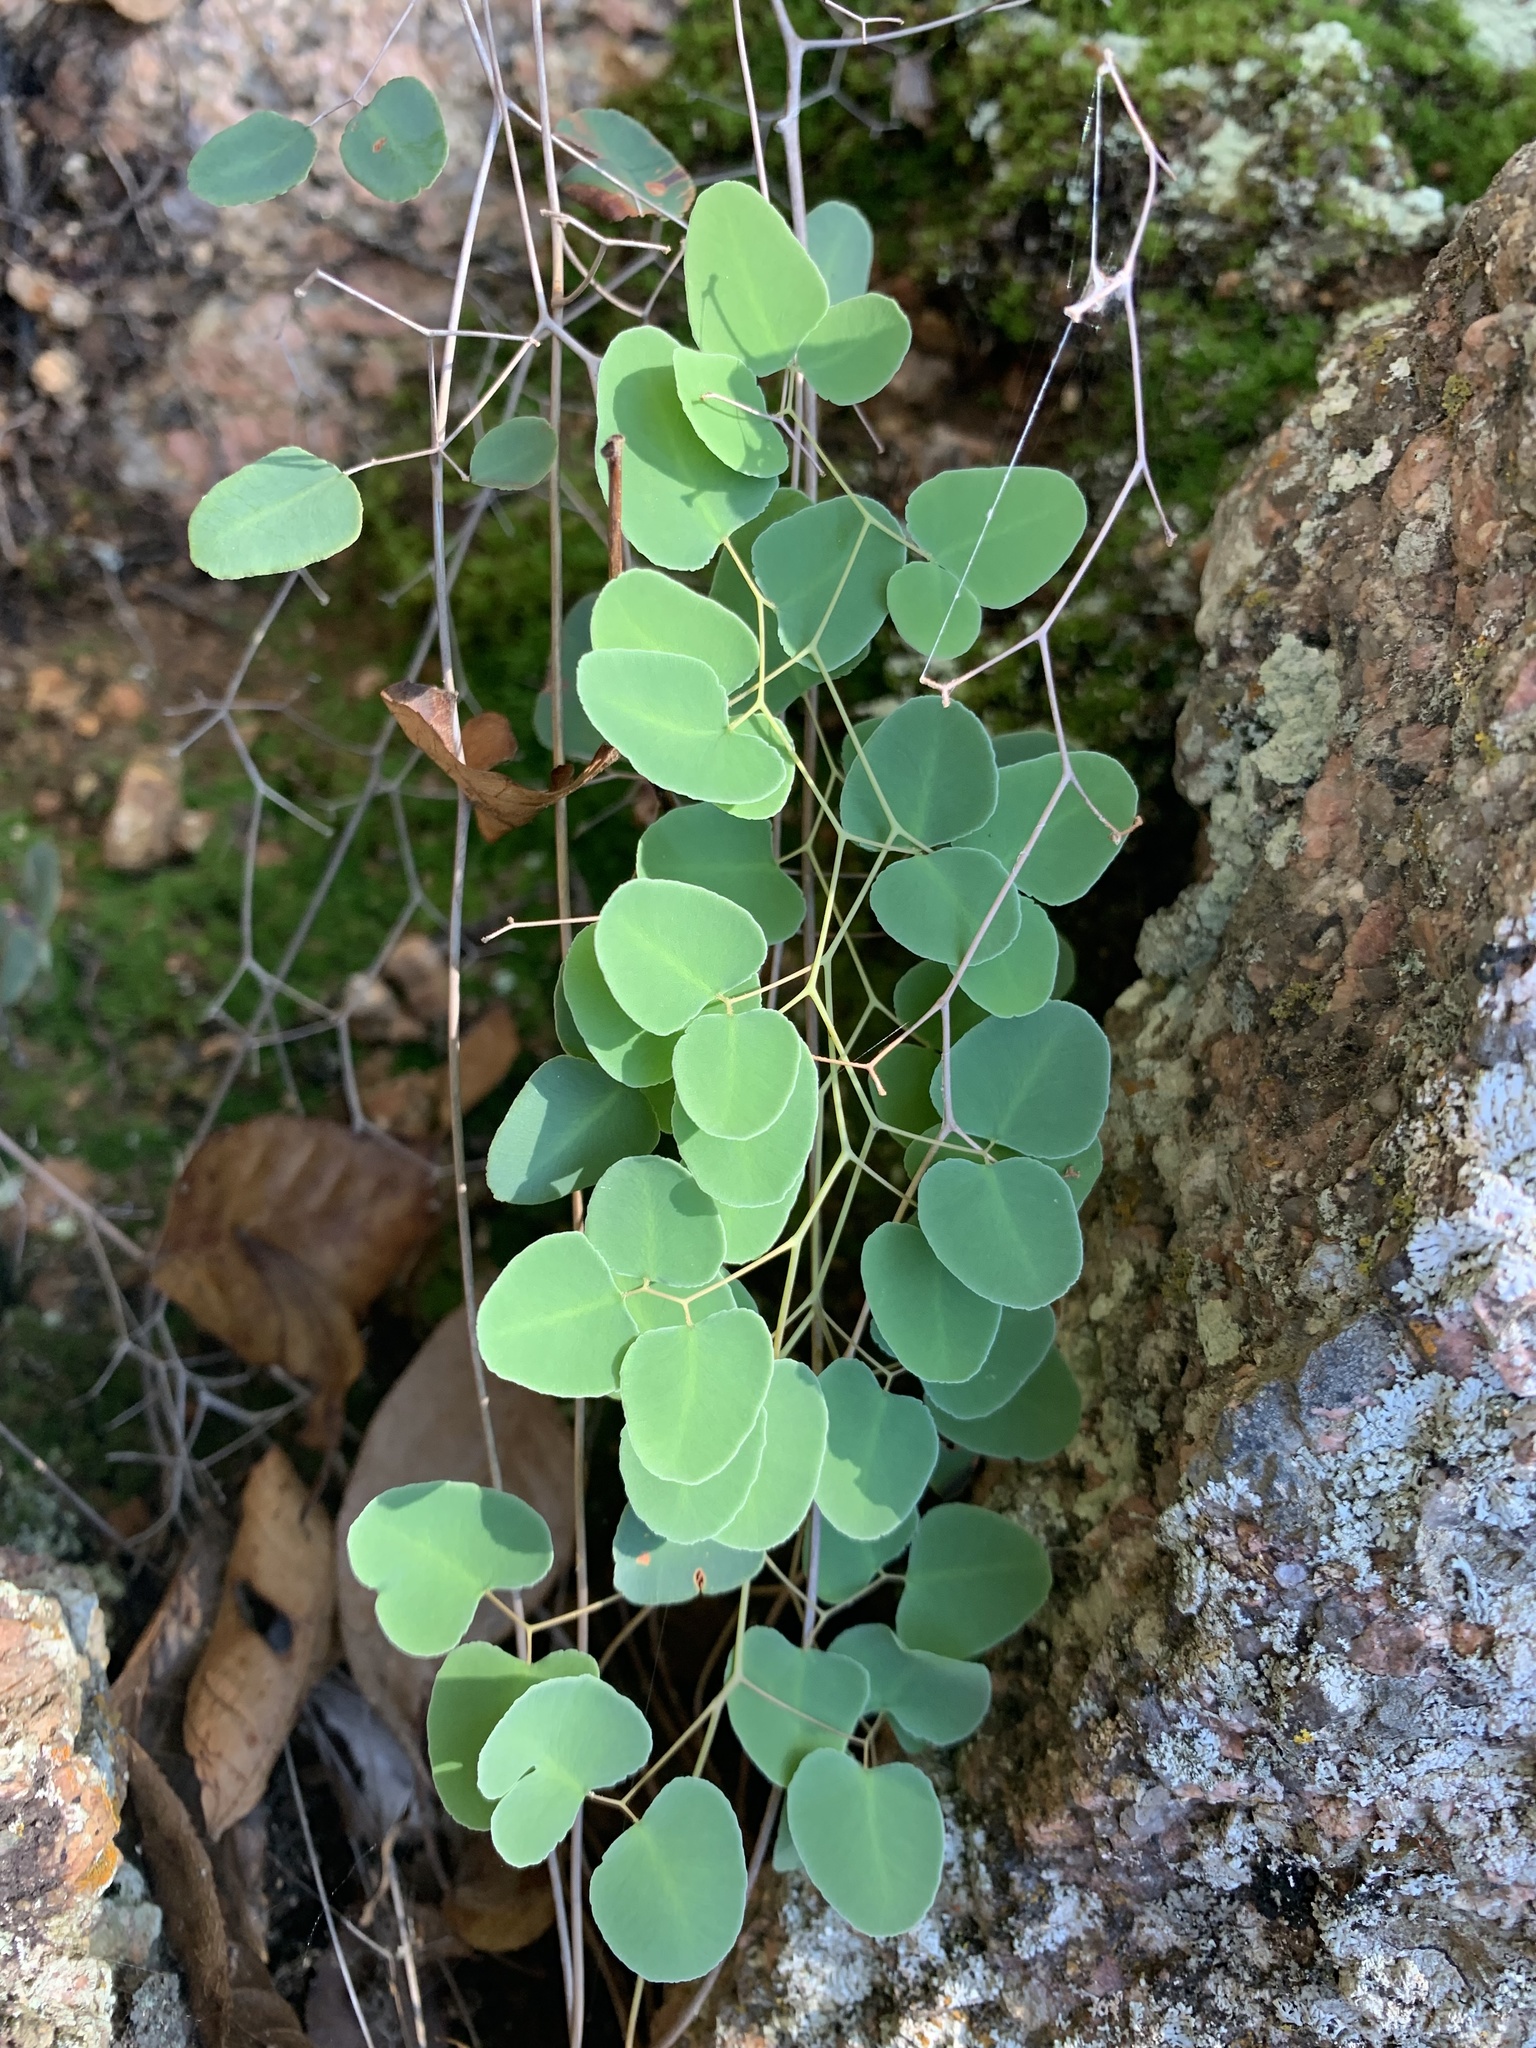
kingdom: Plantae
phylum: Tracheophyta
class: Polypodiopsida
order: Polypodiales
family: Pteridaceae
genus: Pellaea
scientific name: Pellaea ovata
